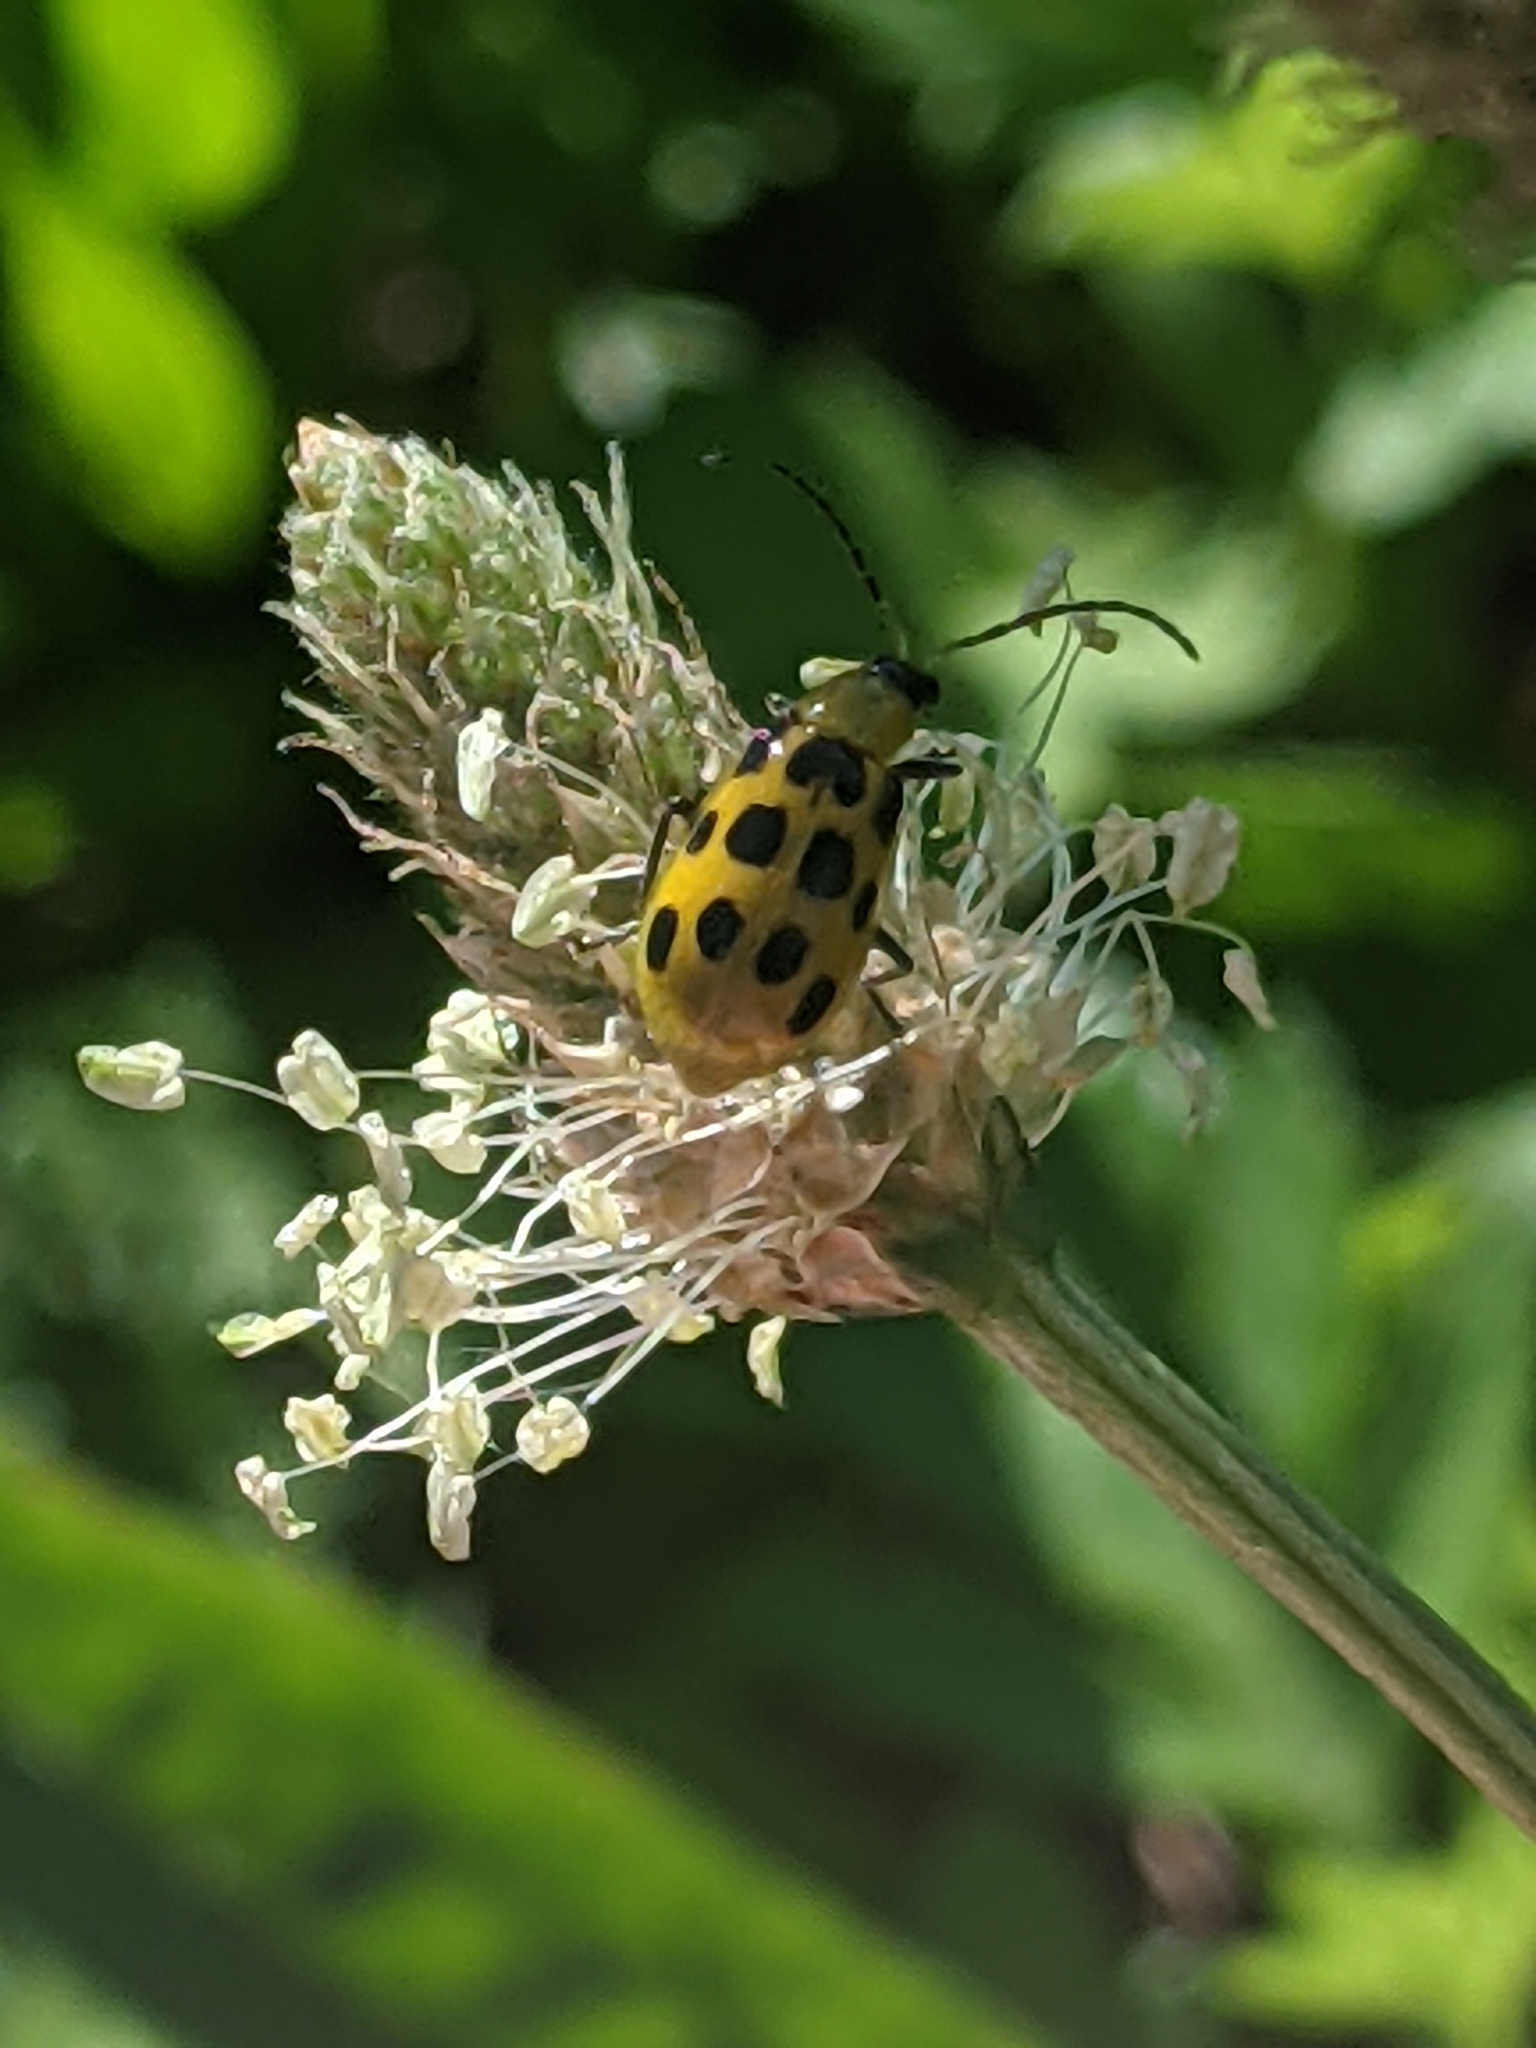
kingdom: Animalia
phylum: Arthropoda
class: Insecta
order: Coleoptera
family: Chrysomelidae
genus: Diabrotica
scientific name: Diabrotica undecimpunctata
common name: Spotted cucumber beetle
